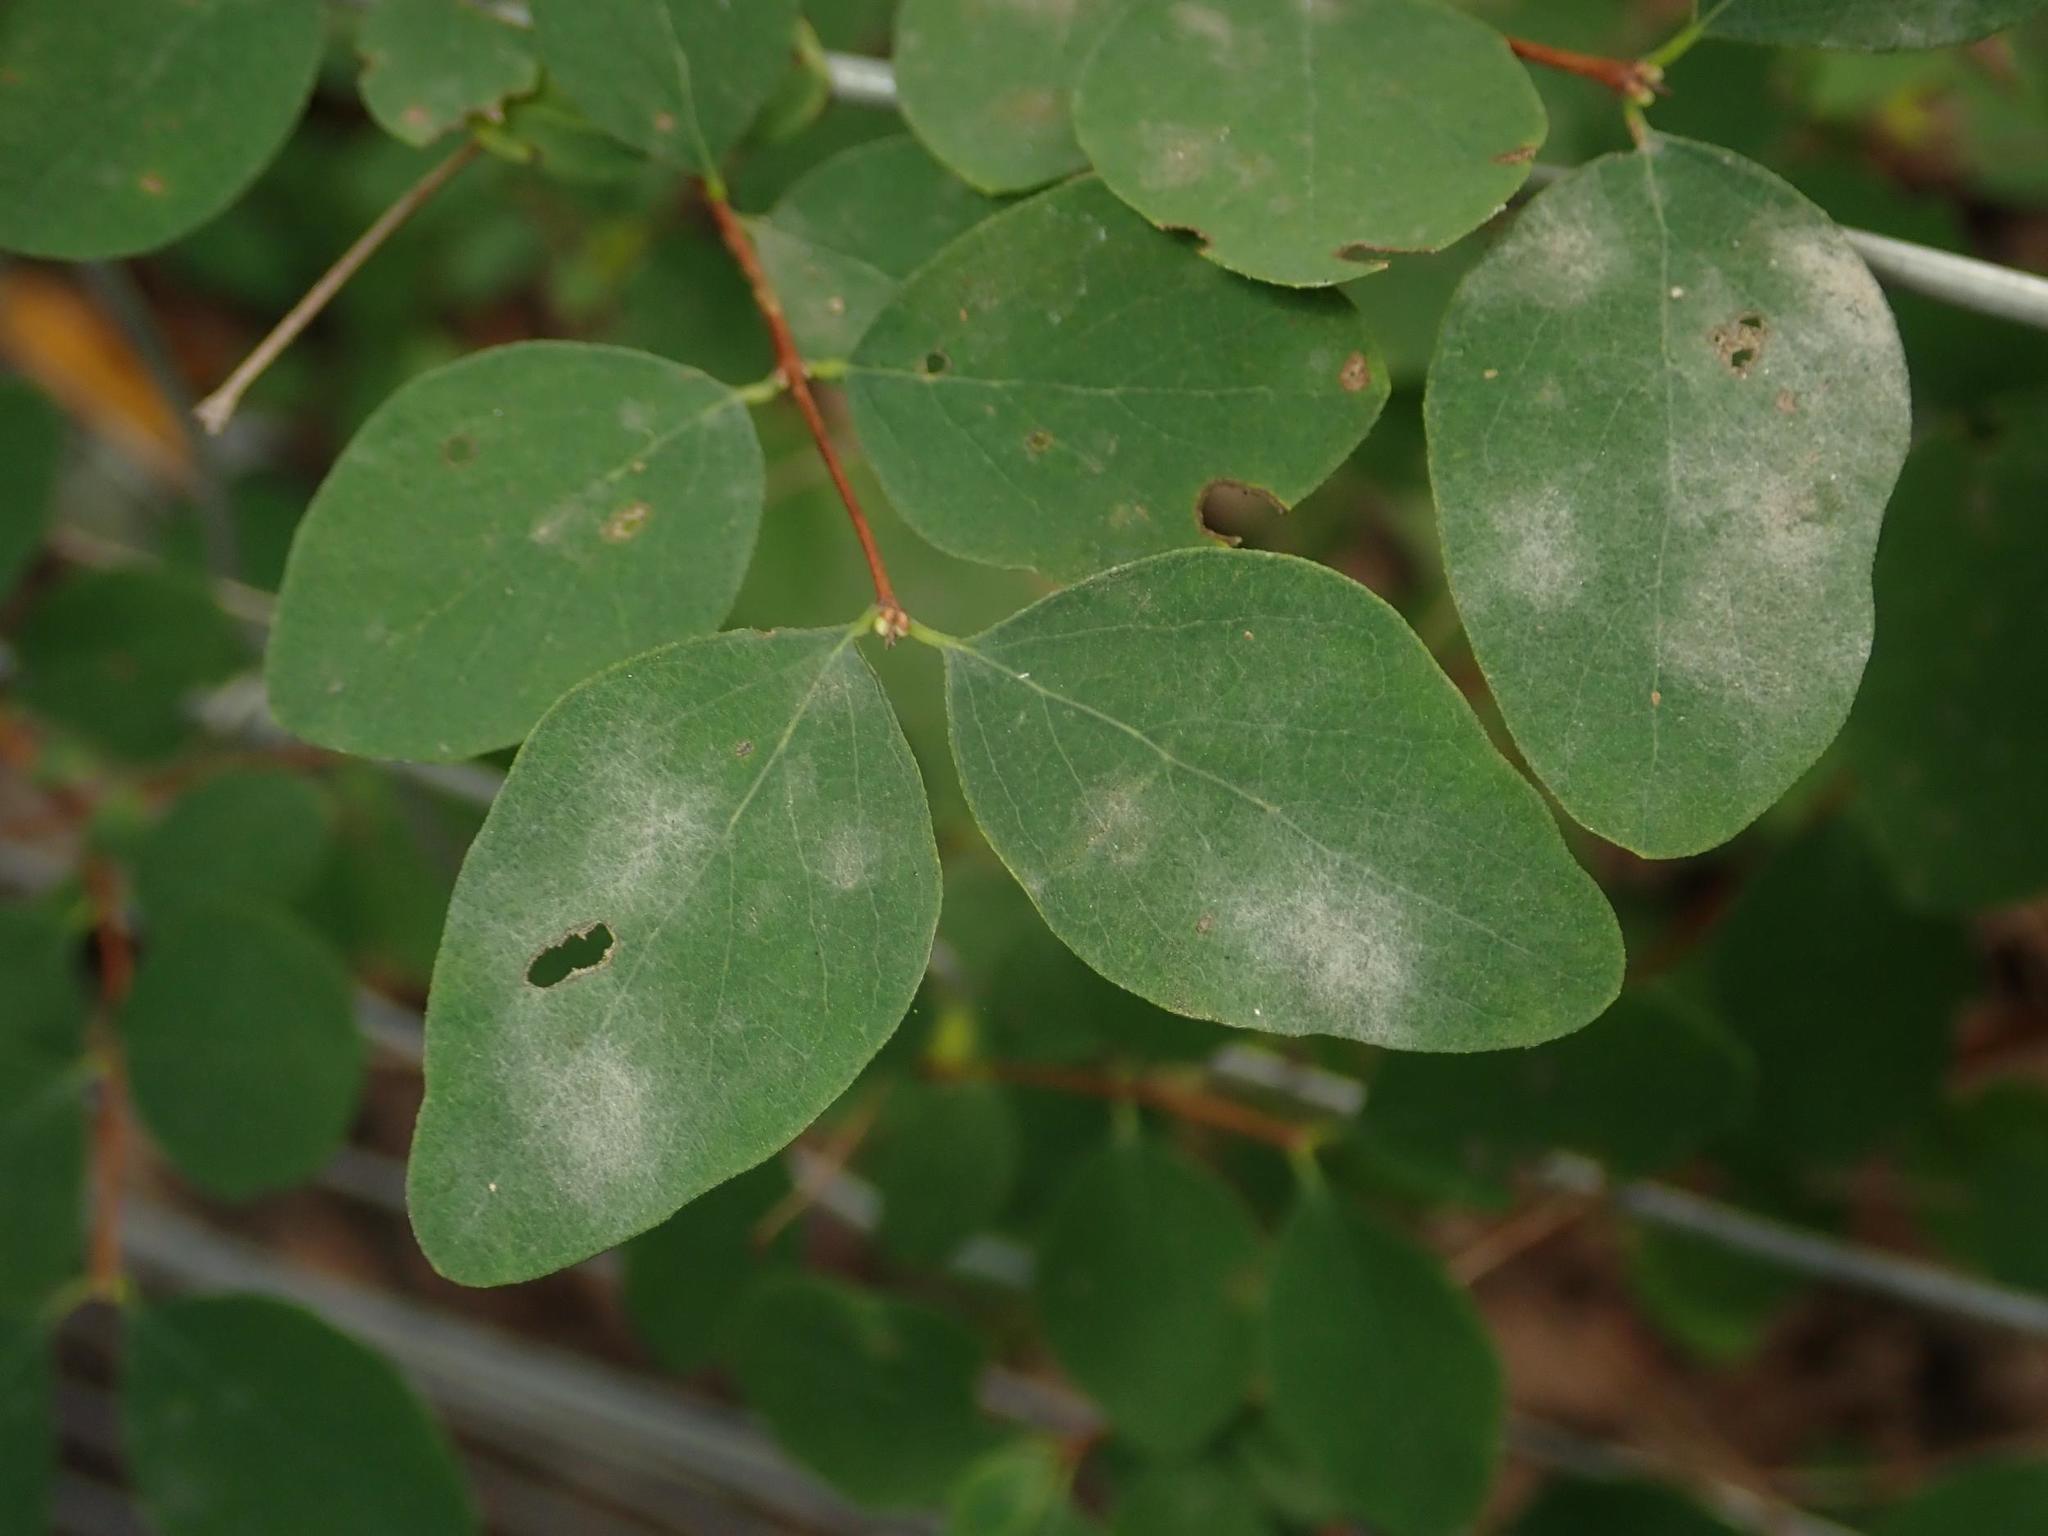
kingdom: Fungi
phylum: Ascomycota
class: Leotiomycetes
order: Helotiales
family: Erysiphaceae
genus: Erysiphe
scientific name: Erysiphe symphoricarpi
